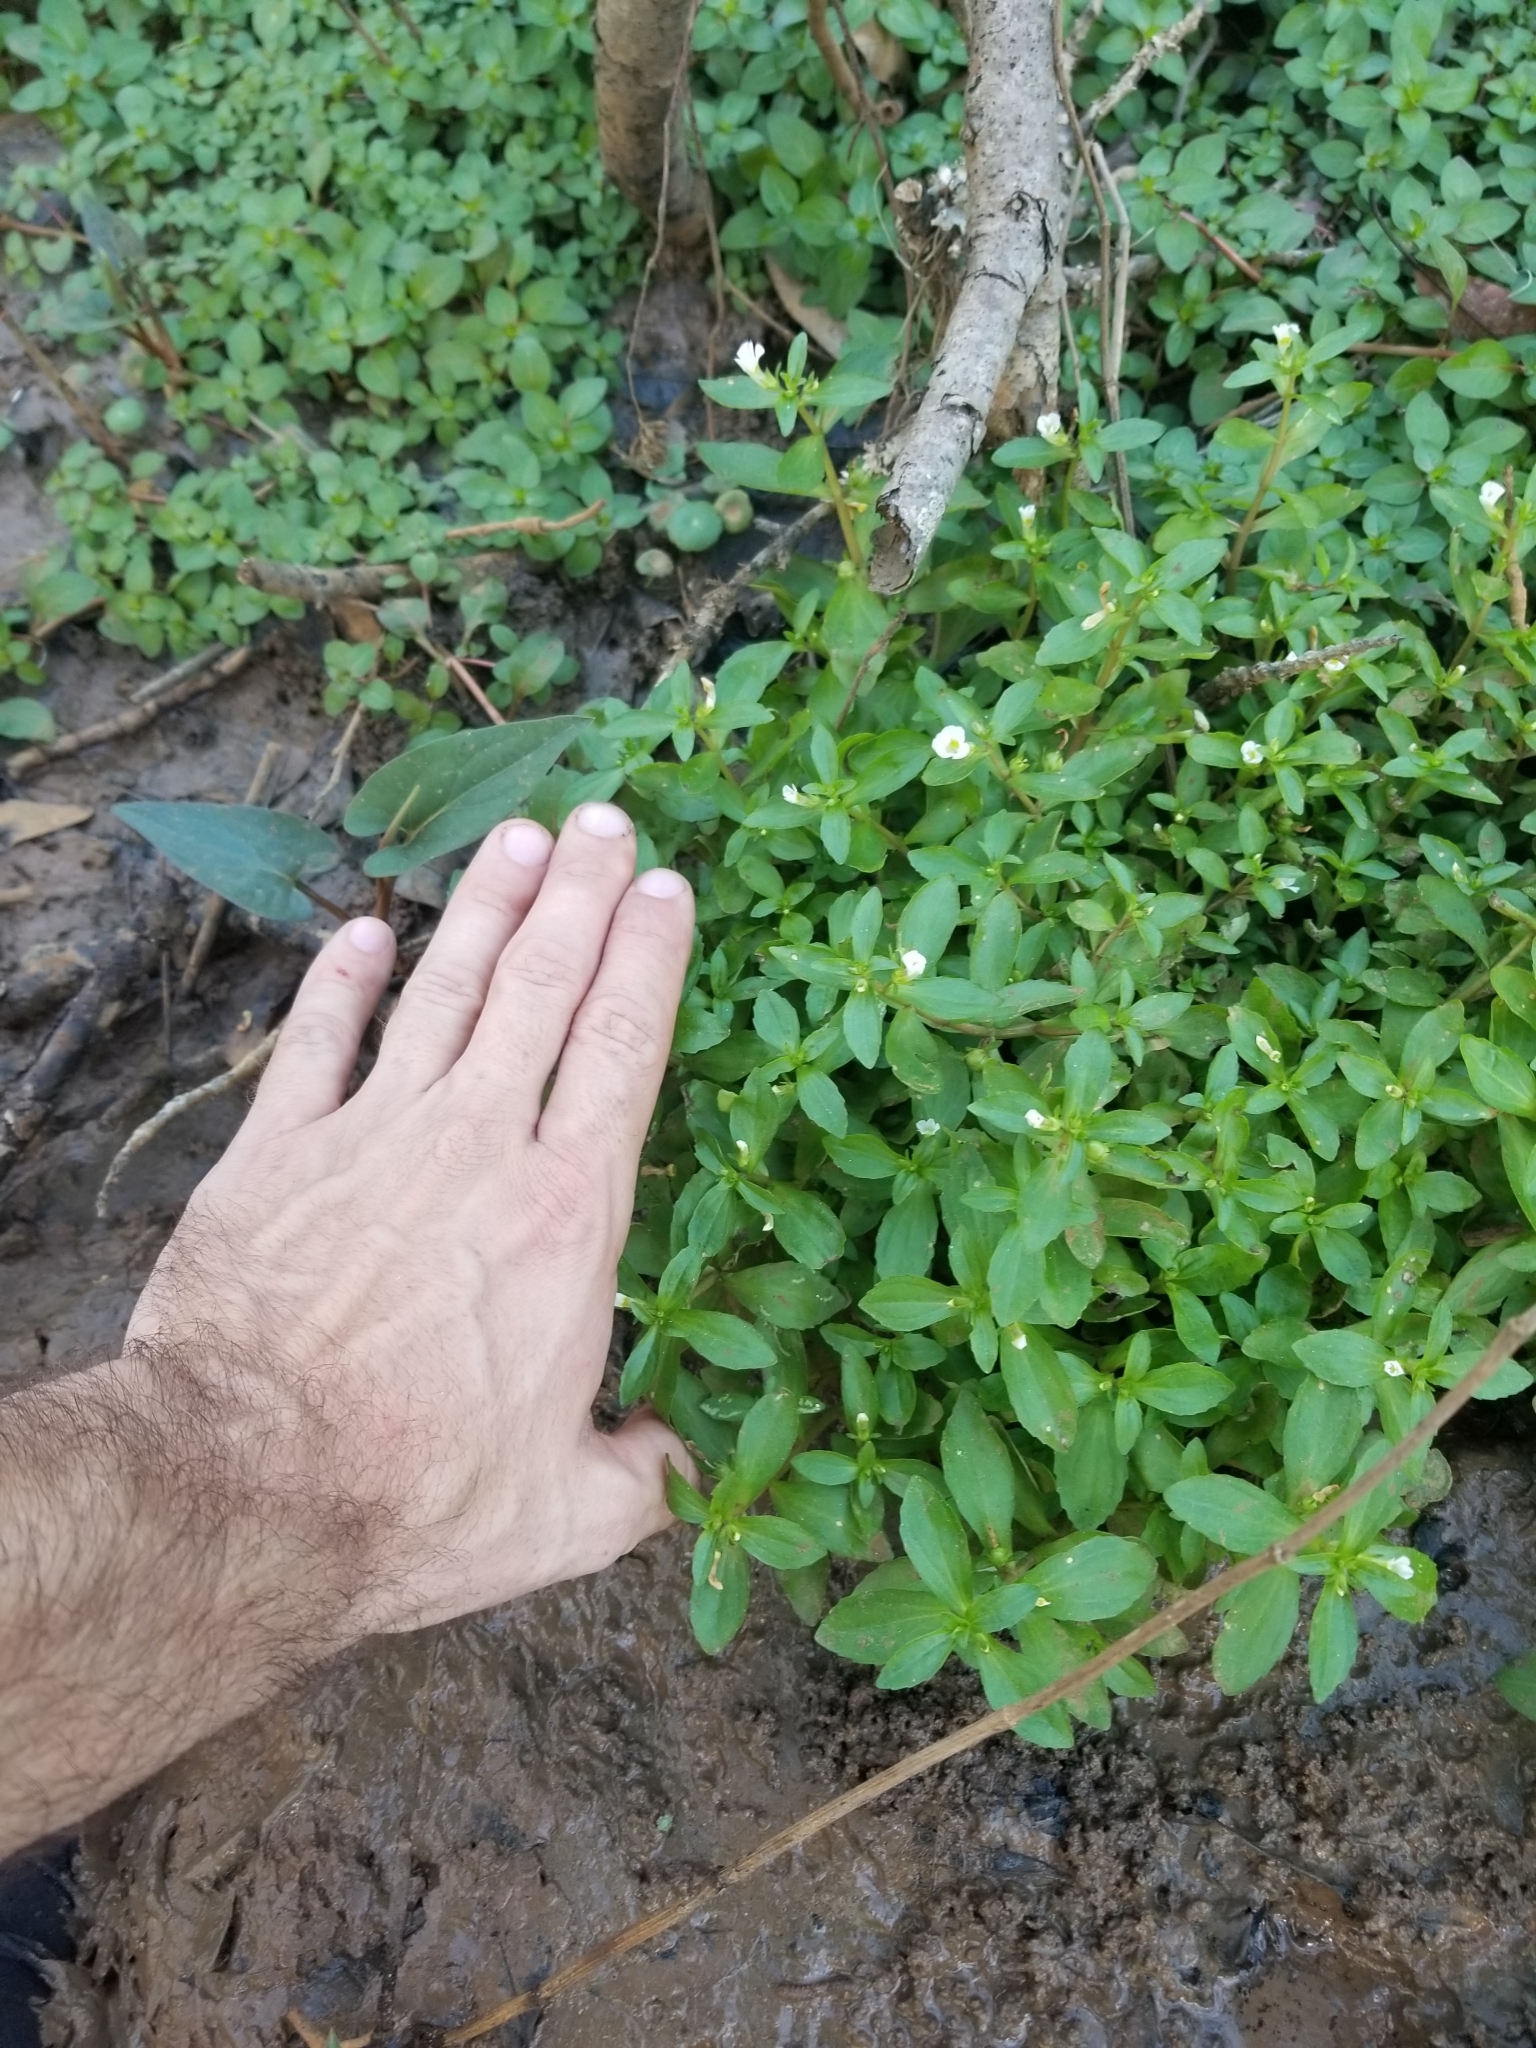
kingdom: Plantae
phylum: Tracheophyta
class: Magnoliopsida
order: Lamiales
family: Plantaginaceae
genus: Gratiola
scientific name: Gratiola virginiana
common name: Roundfruit hedgehyssop
